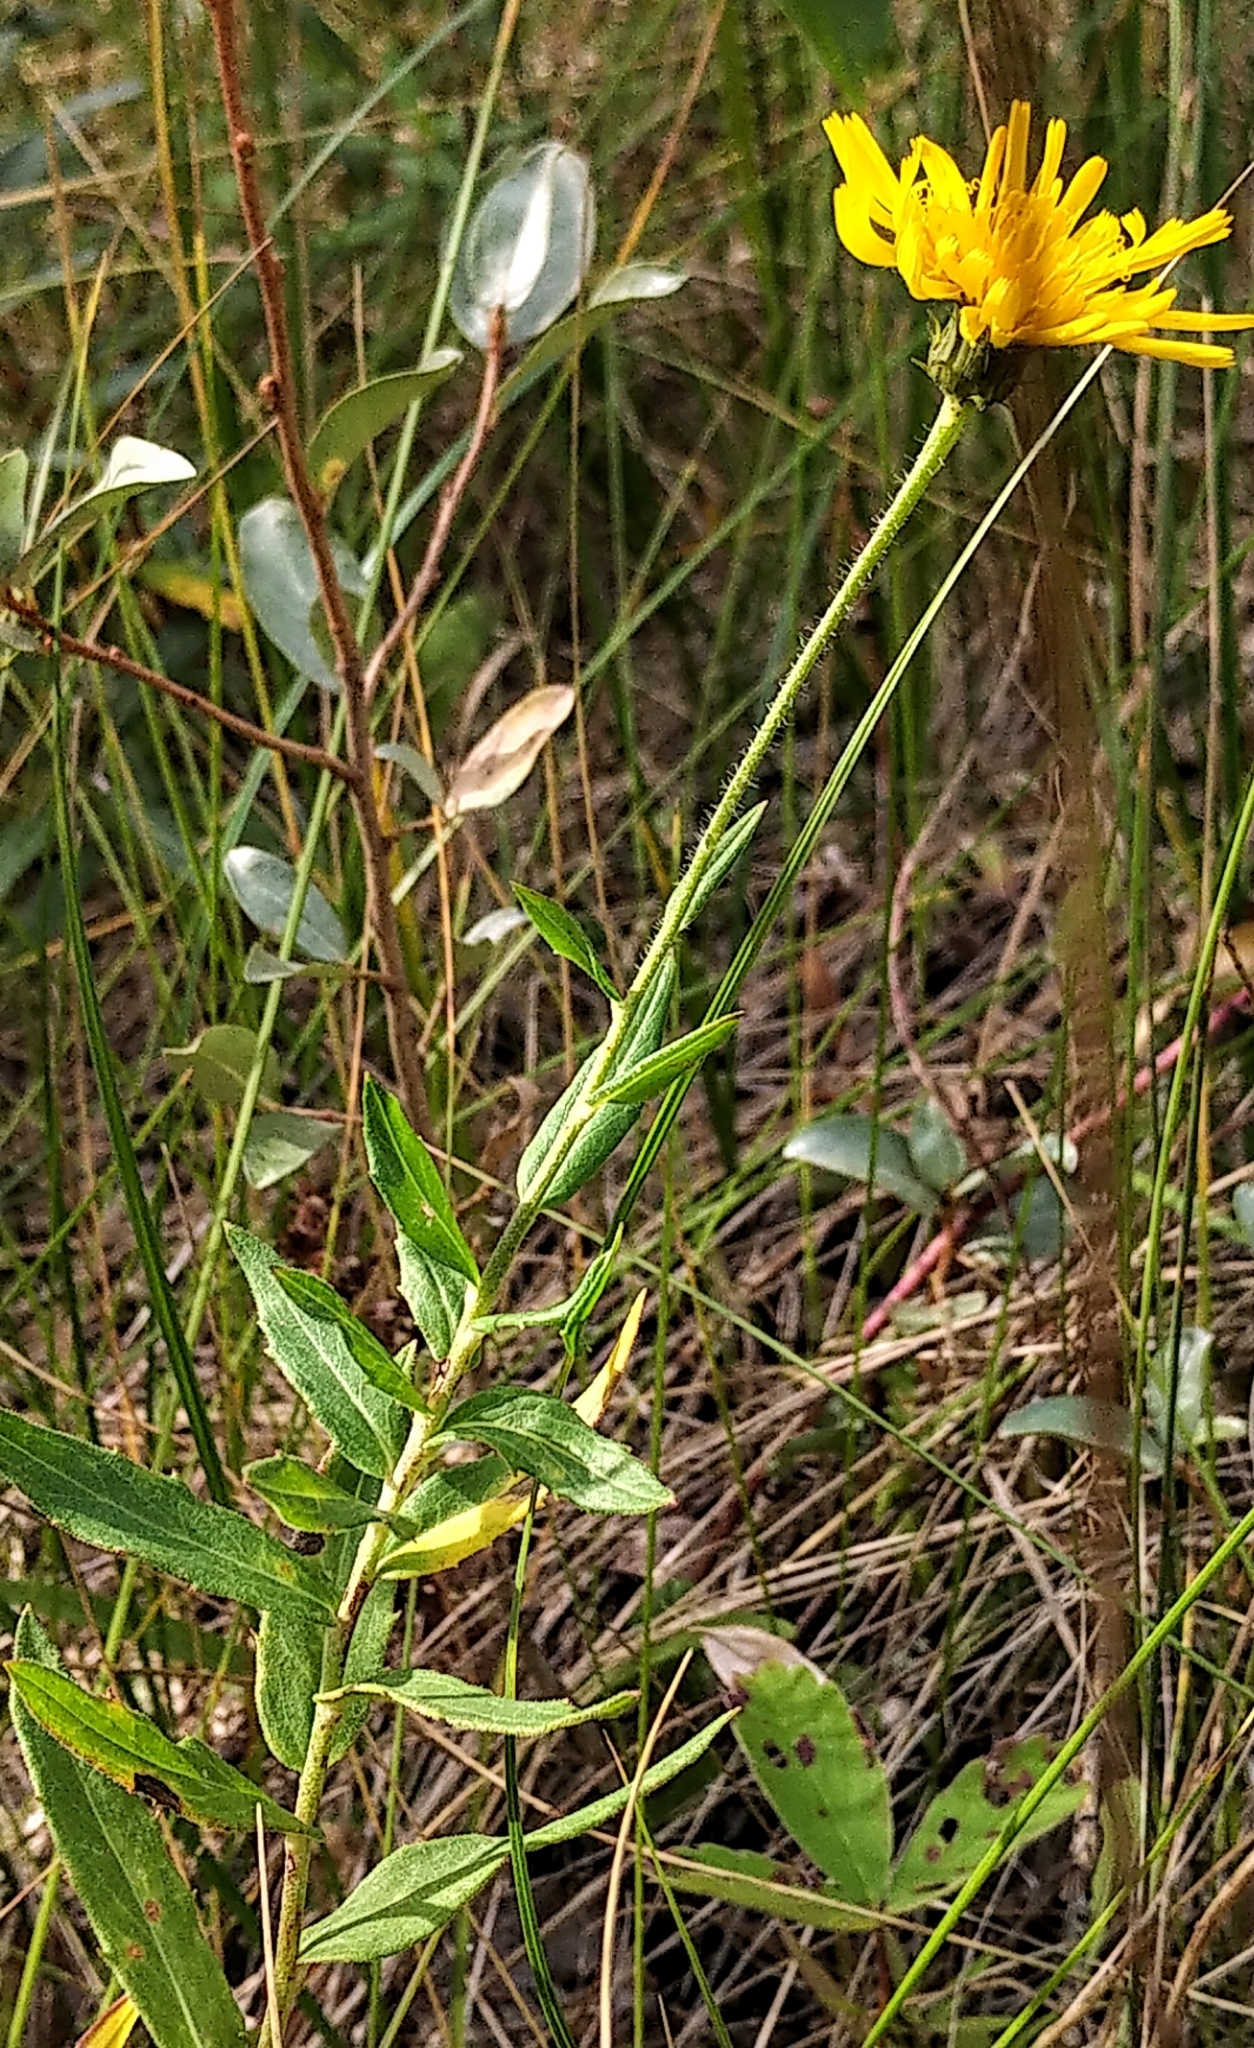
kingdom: Plantae
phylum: Tracheophyta
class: Magnoliopsida
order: Asterales
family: Asteraceae
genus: Hieracium
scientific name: Hieracium umbellatum
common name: Northern hawkweed
